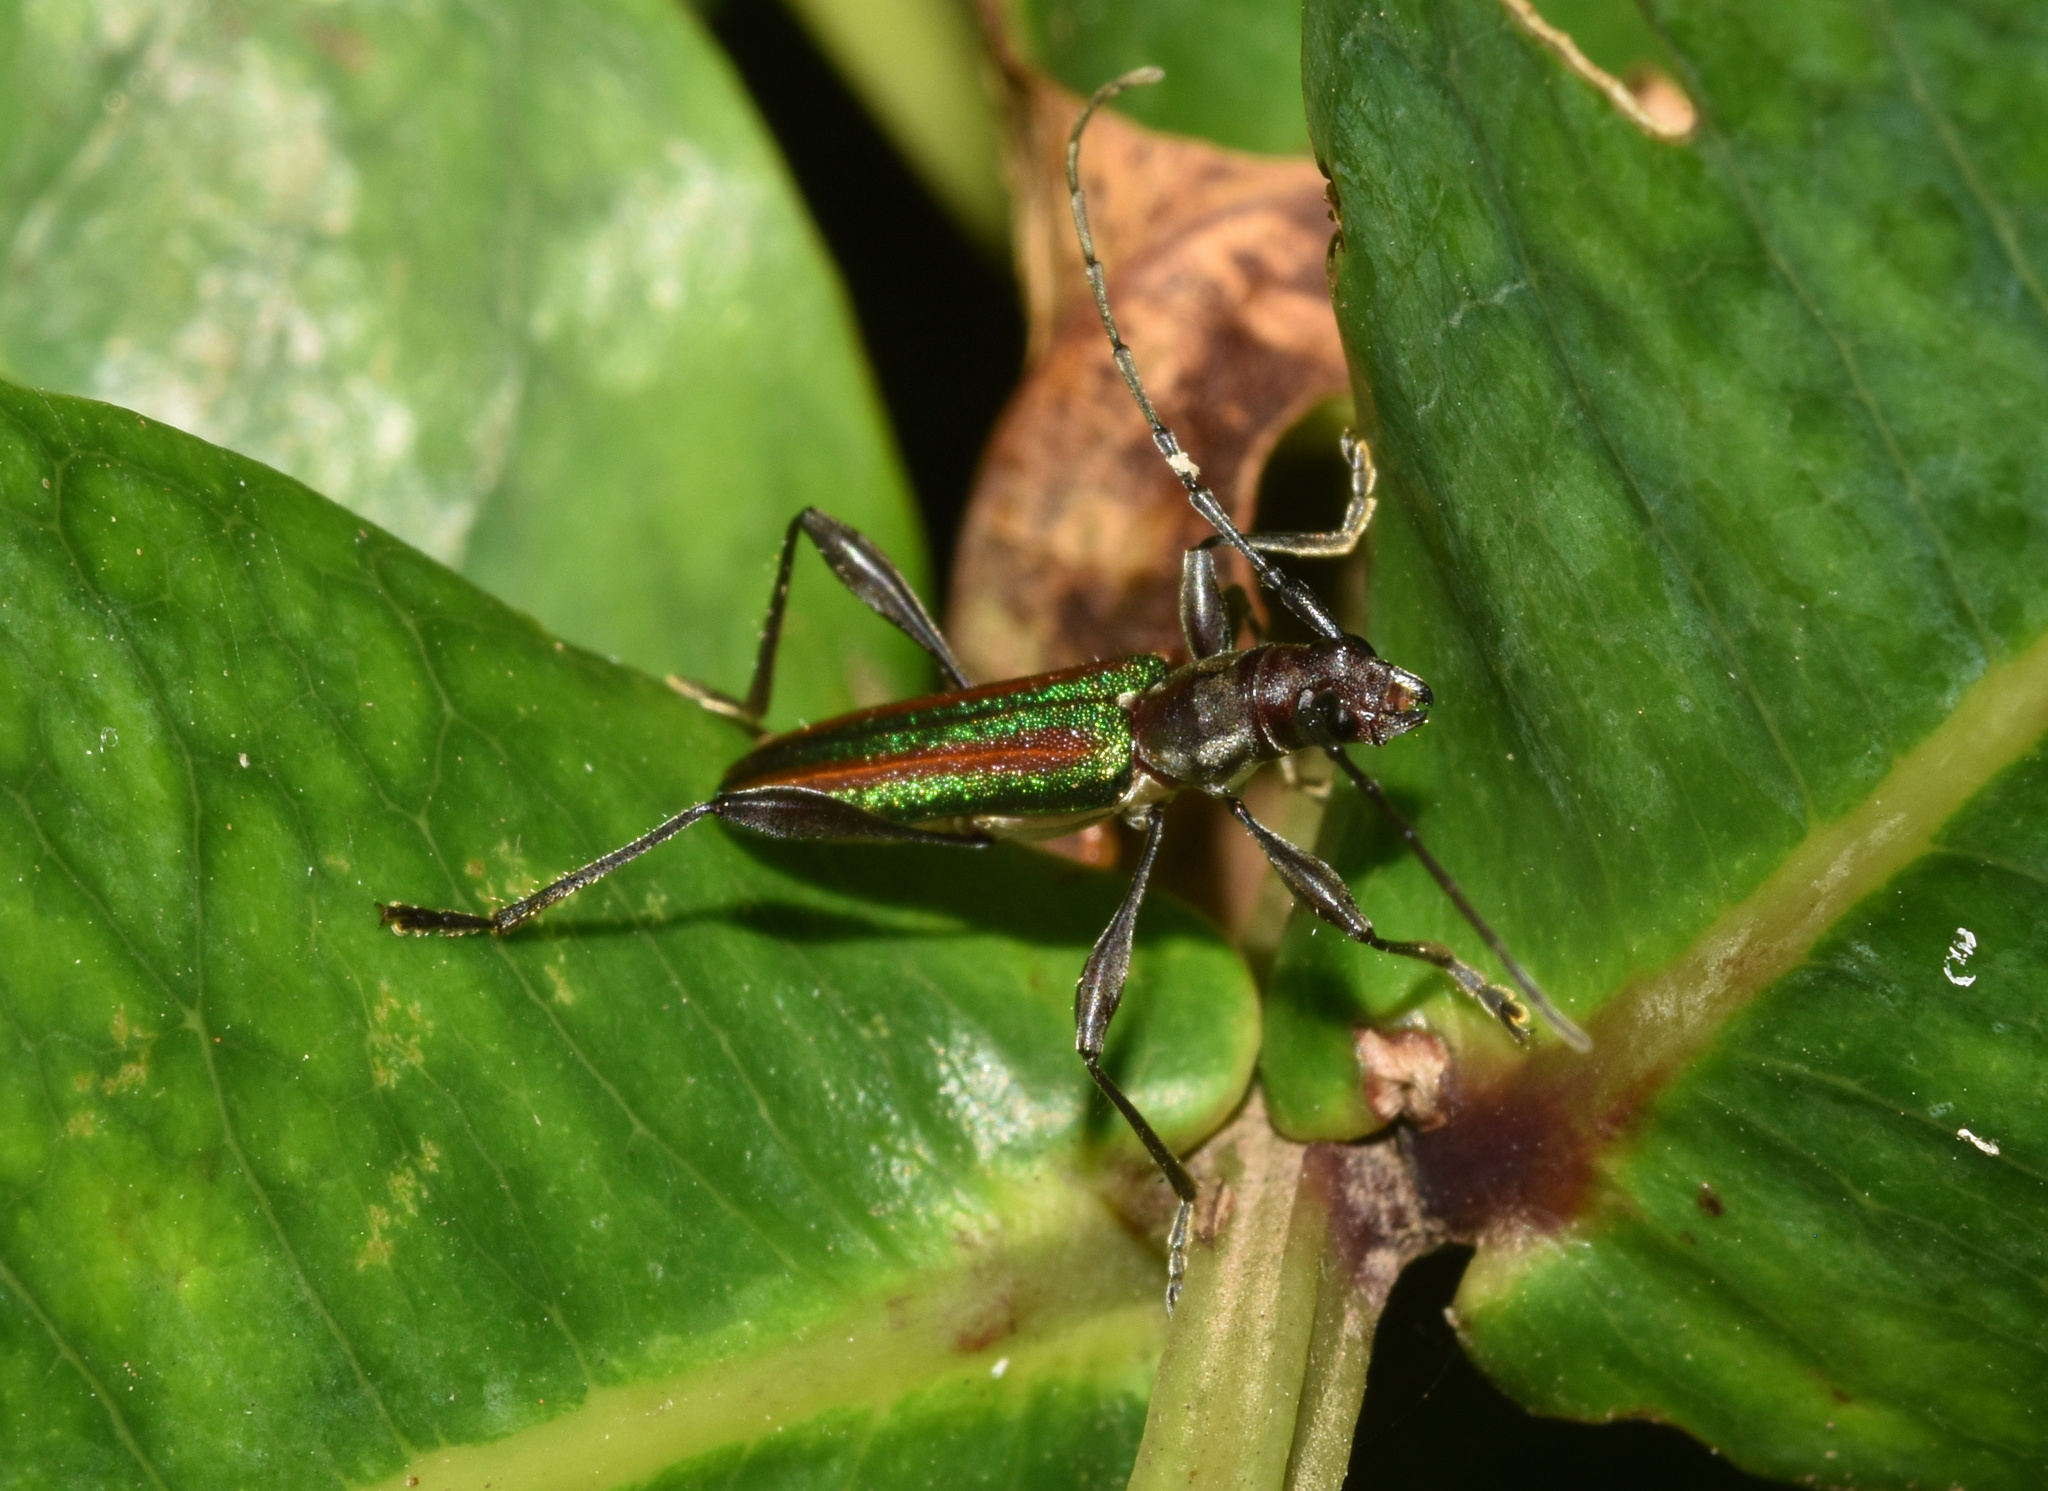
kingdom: Animalia
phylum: Arthropoda
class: Insecta
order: Coleoptera
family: Cerambycidae
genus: Zosterius
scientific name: Zosterius laetus
